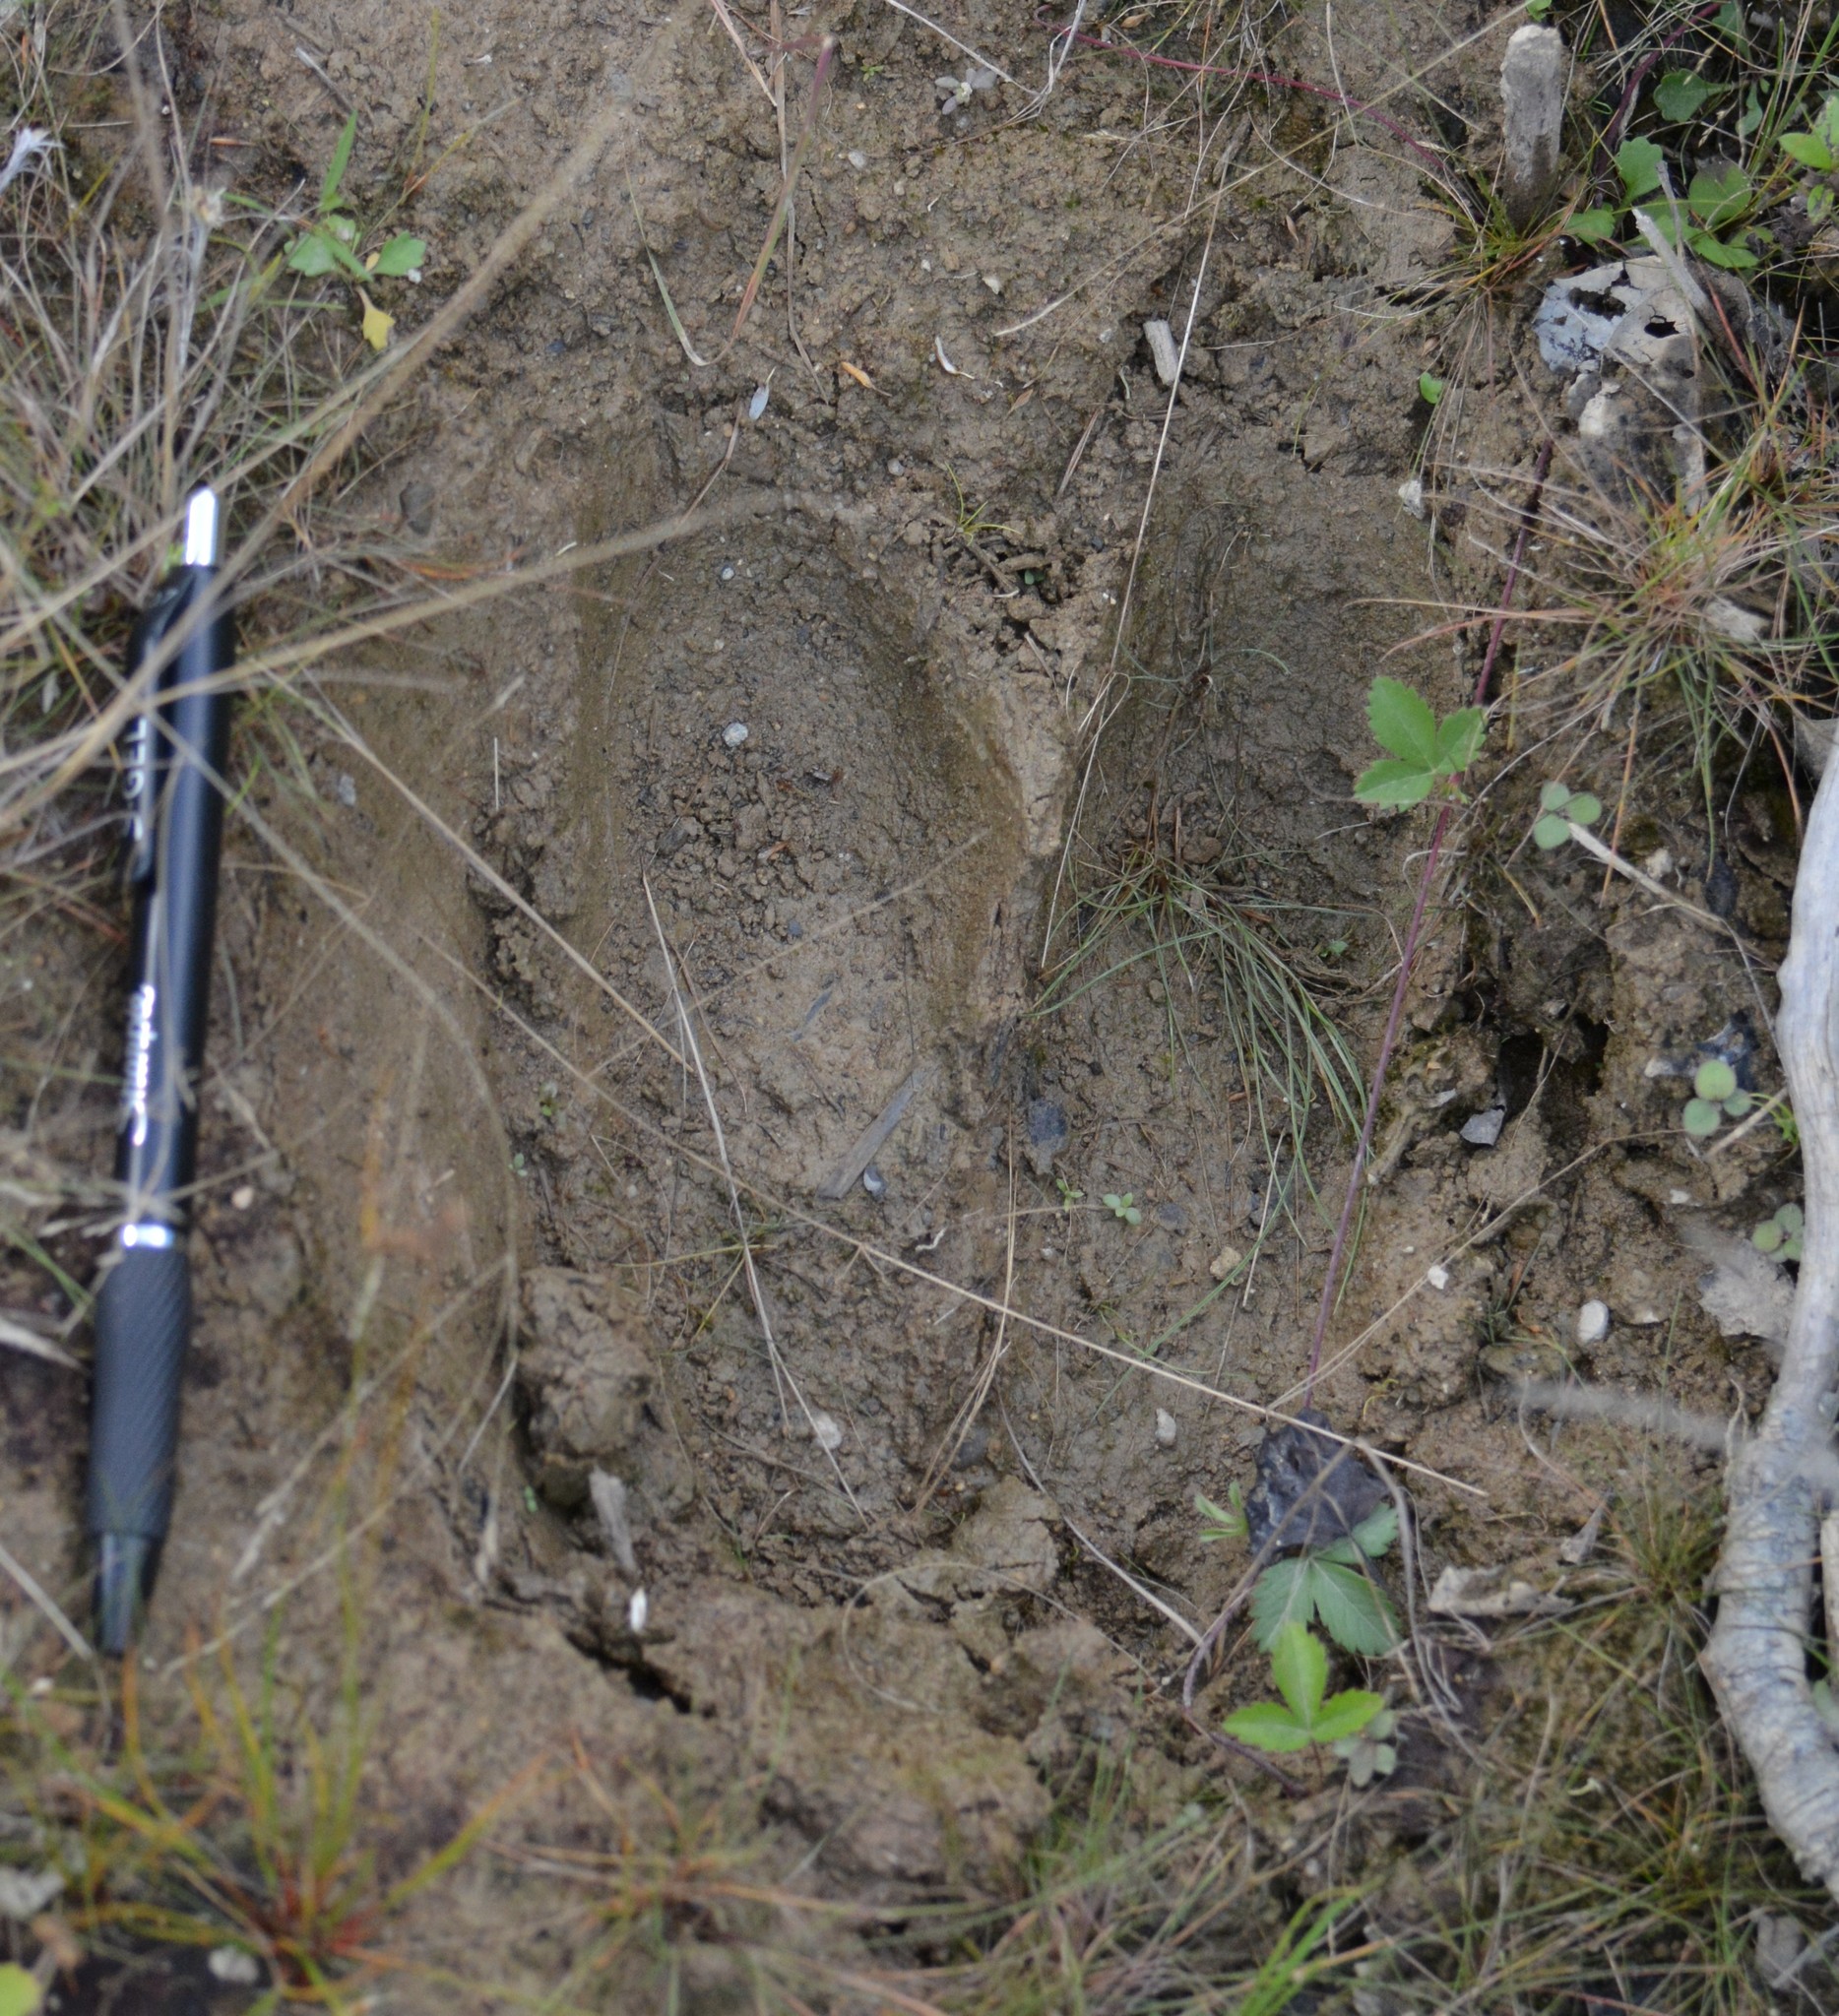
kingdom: Animalia
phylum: Chordata
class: Mammalia
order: Artiodactyla
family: Cervidae
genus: Alces
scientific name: Alces alces
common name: Moose
